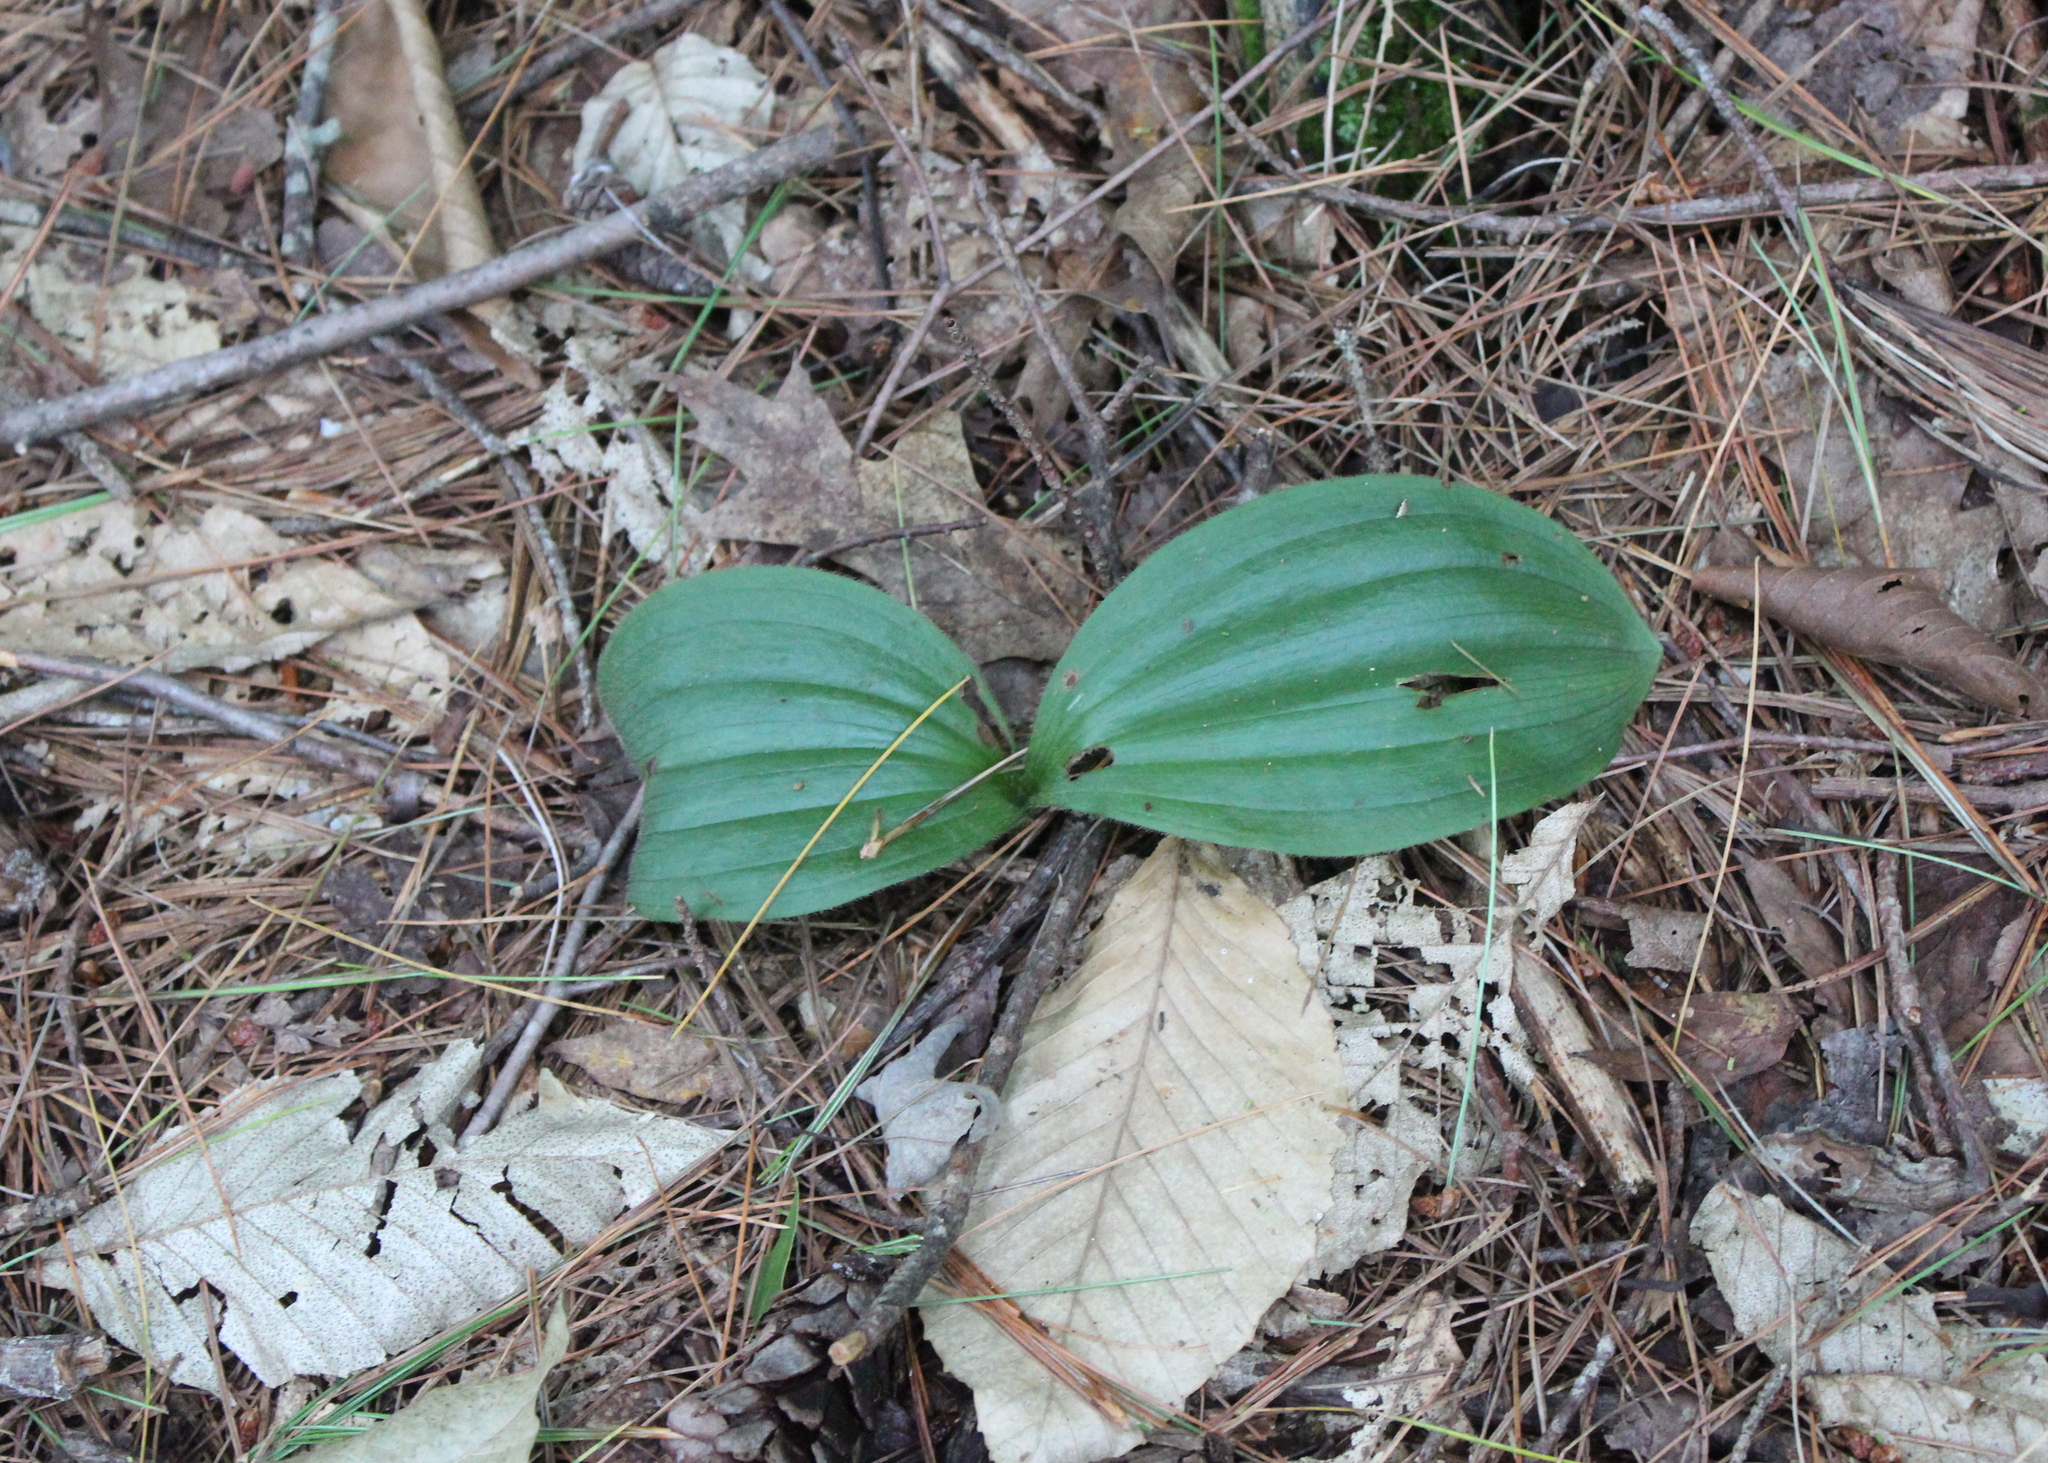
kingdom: Plantae
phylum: Tracheophyta
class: Liliopsida
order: Asparagales
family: Orchidaceae
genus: Cypripedium
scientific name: Cypripedium acaule
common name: Pink lady's-slipper
